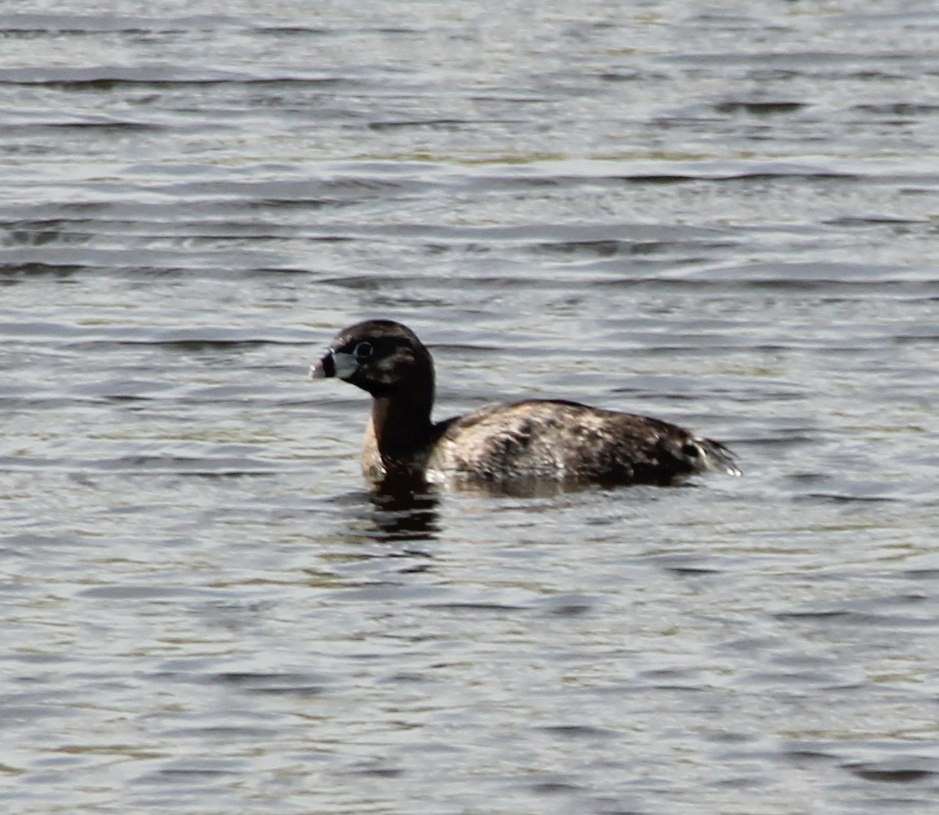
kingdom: Animalia
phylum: Chordata
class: Aves
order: Podicipediformes
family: Podicipedidae
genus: Podilymbus
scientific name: Podilymbus podiceps
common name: Pied-billed grebe
